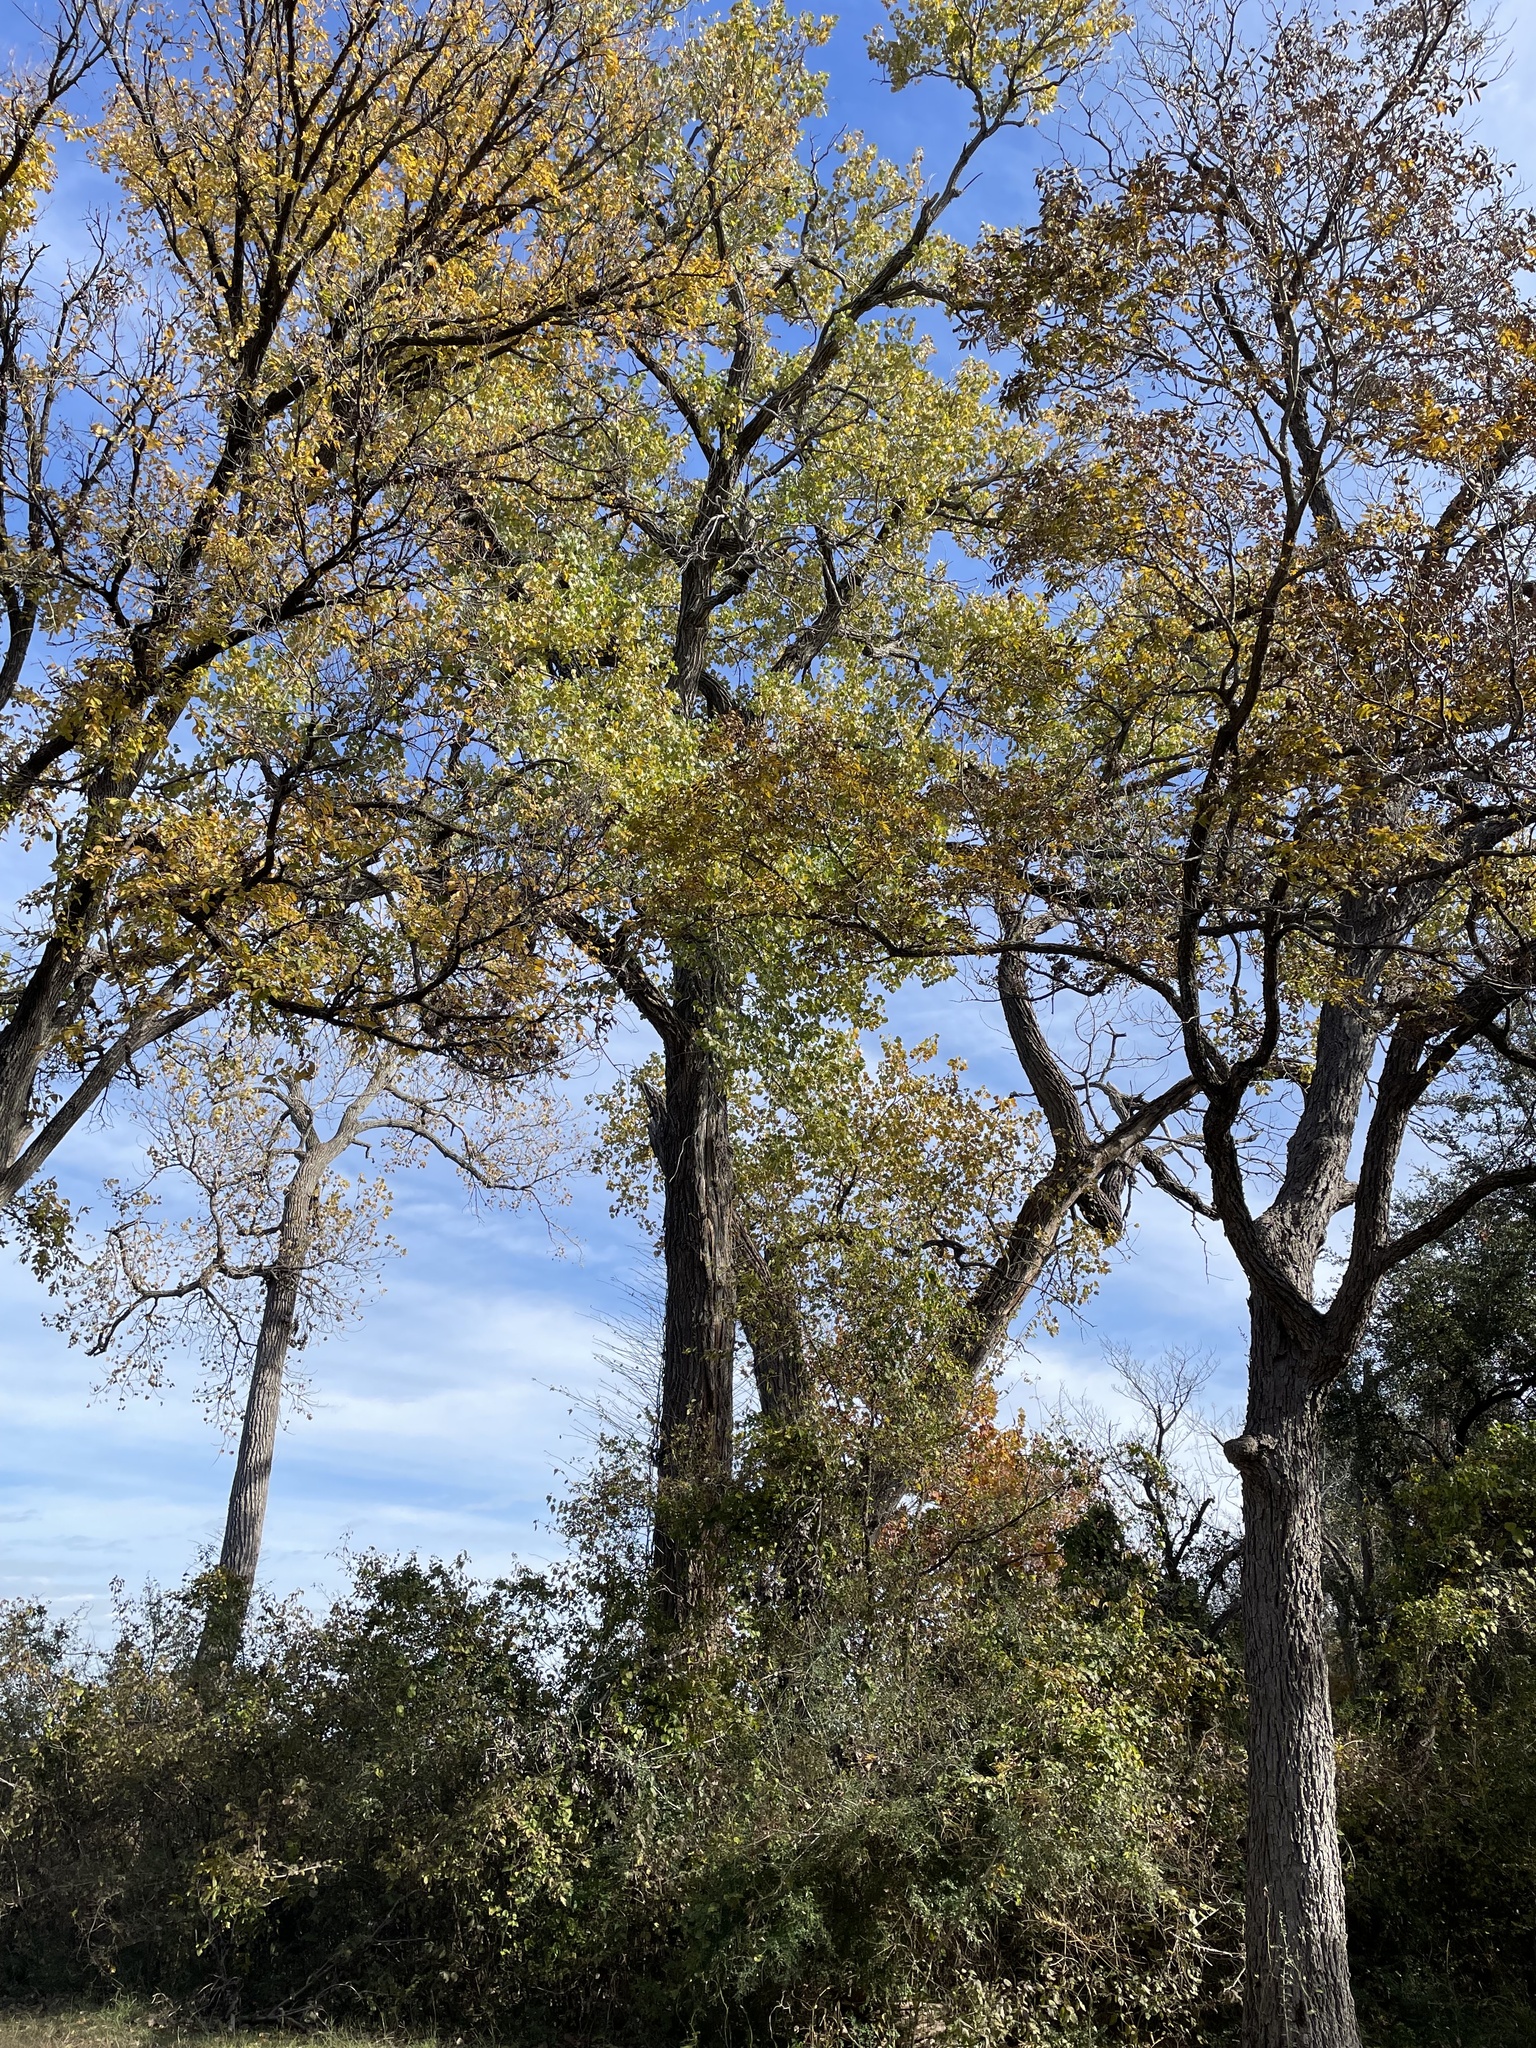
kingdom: Plantae
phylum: Tracheophyta
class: Magnoliopsida
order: Malpighiales
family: Salicaceae
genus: Populus
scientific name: Populus deltoides
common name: Eastern cottonwood
